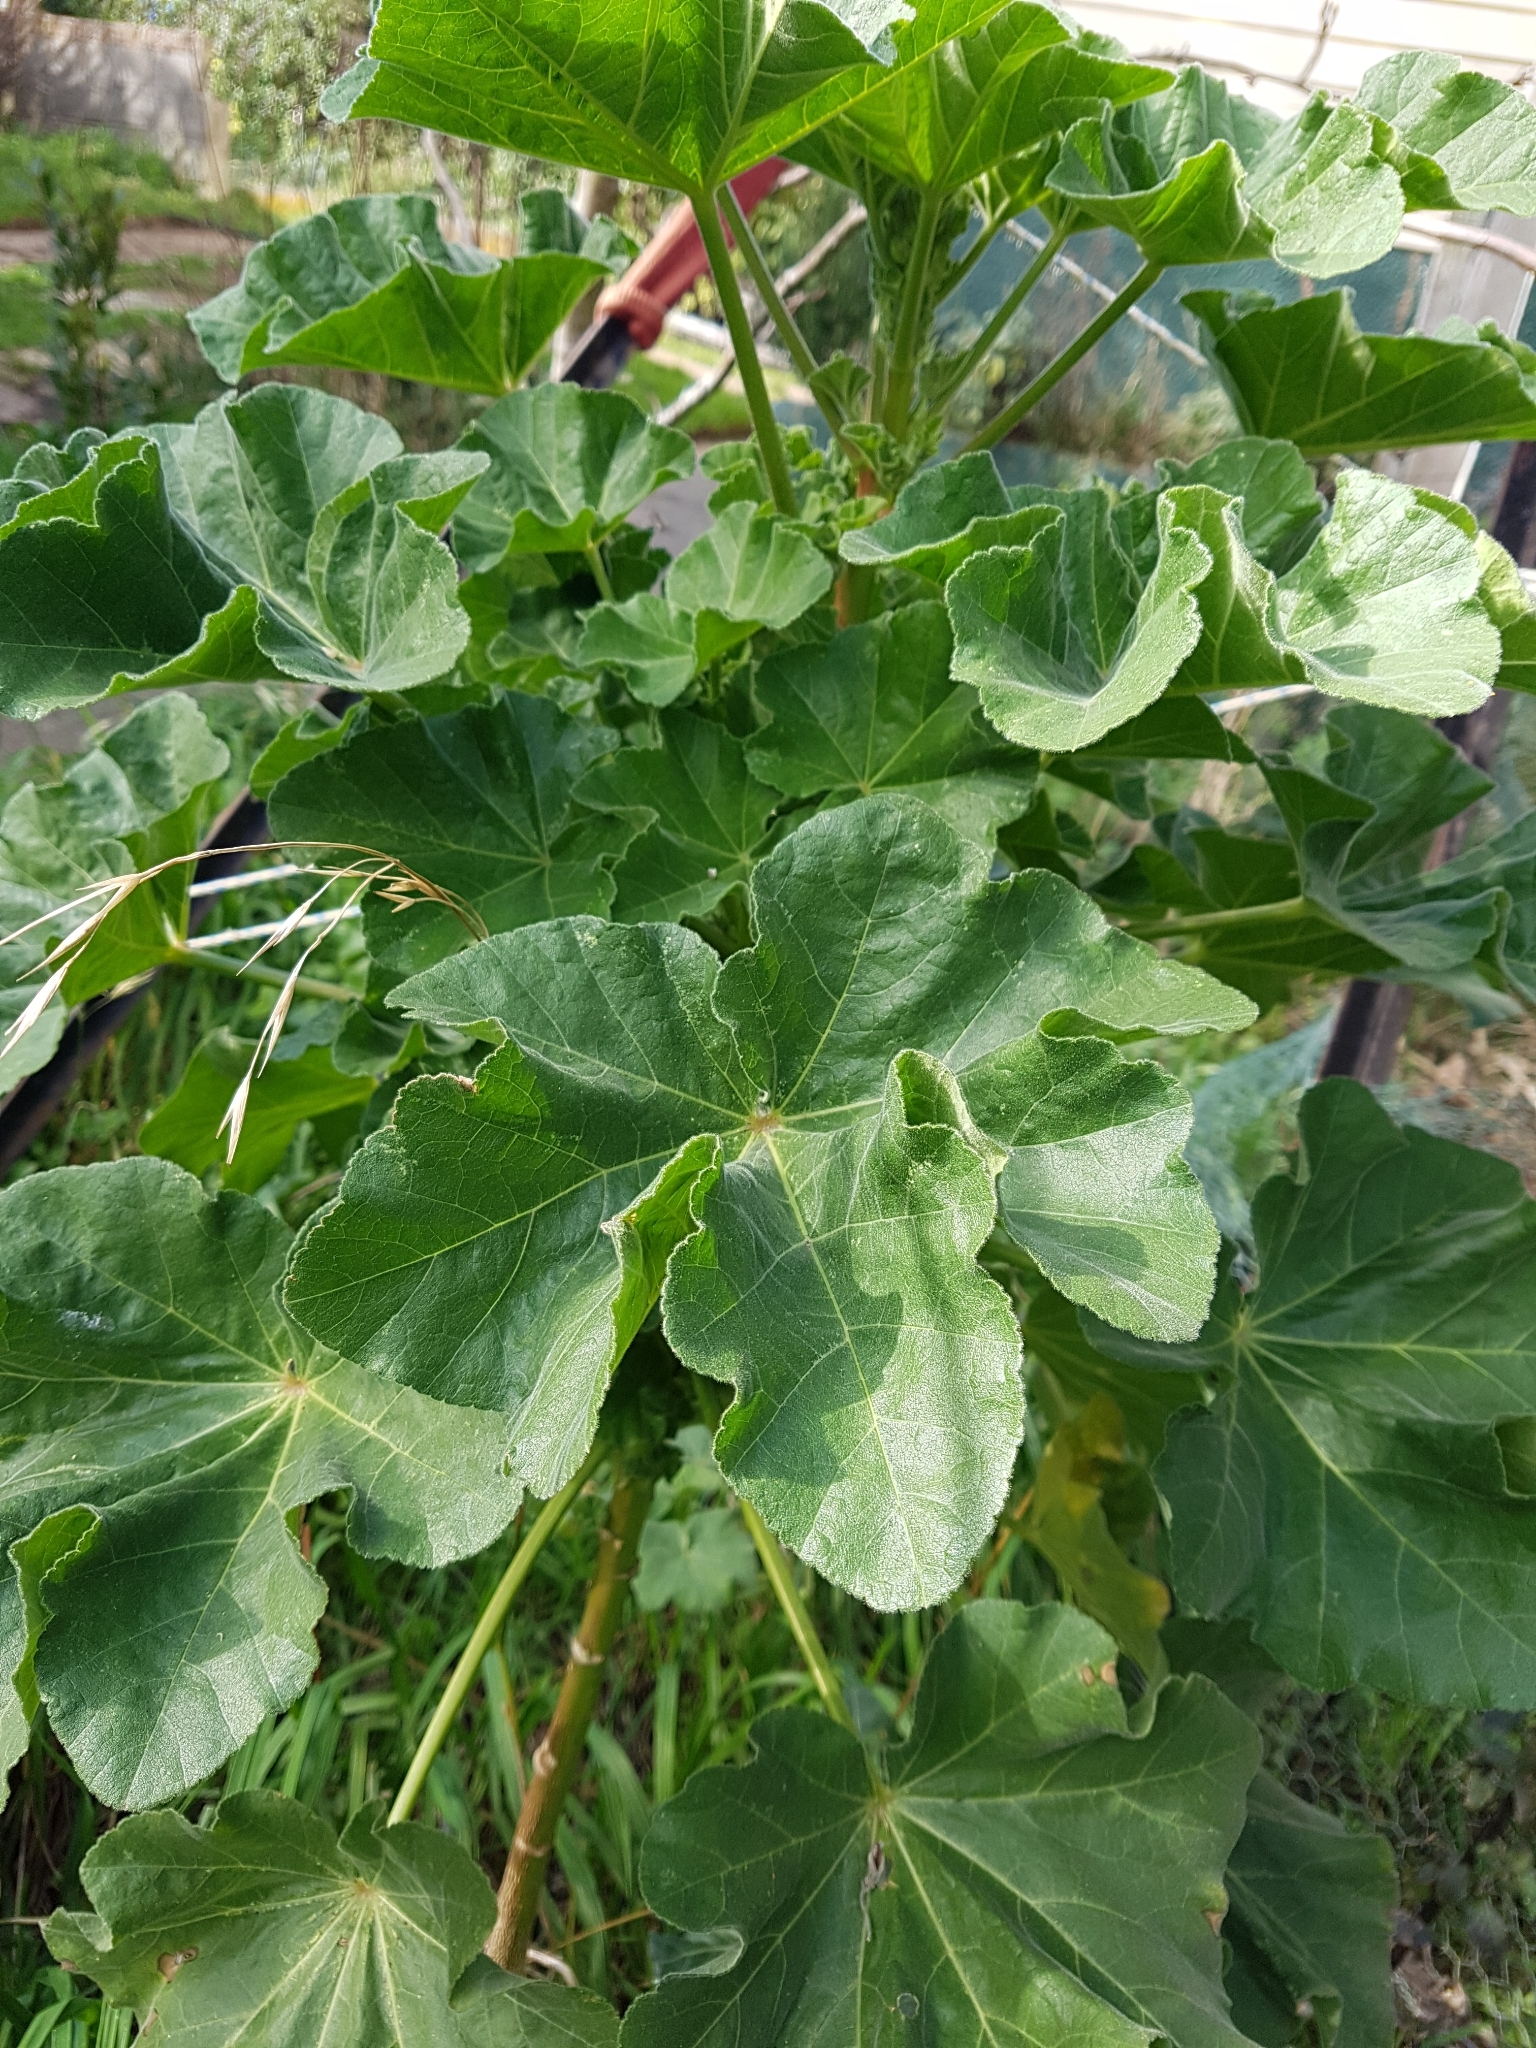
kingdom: Plantae
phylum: Tracheophyta
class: Magnoliopsida
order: Malvales
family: Malvaceae
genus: Malva
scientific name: Malva arborea
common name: Tree mallow
